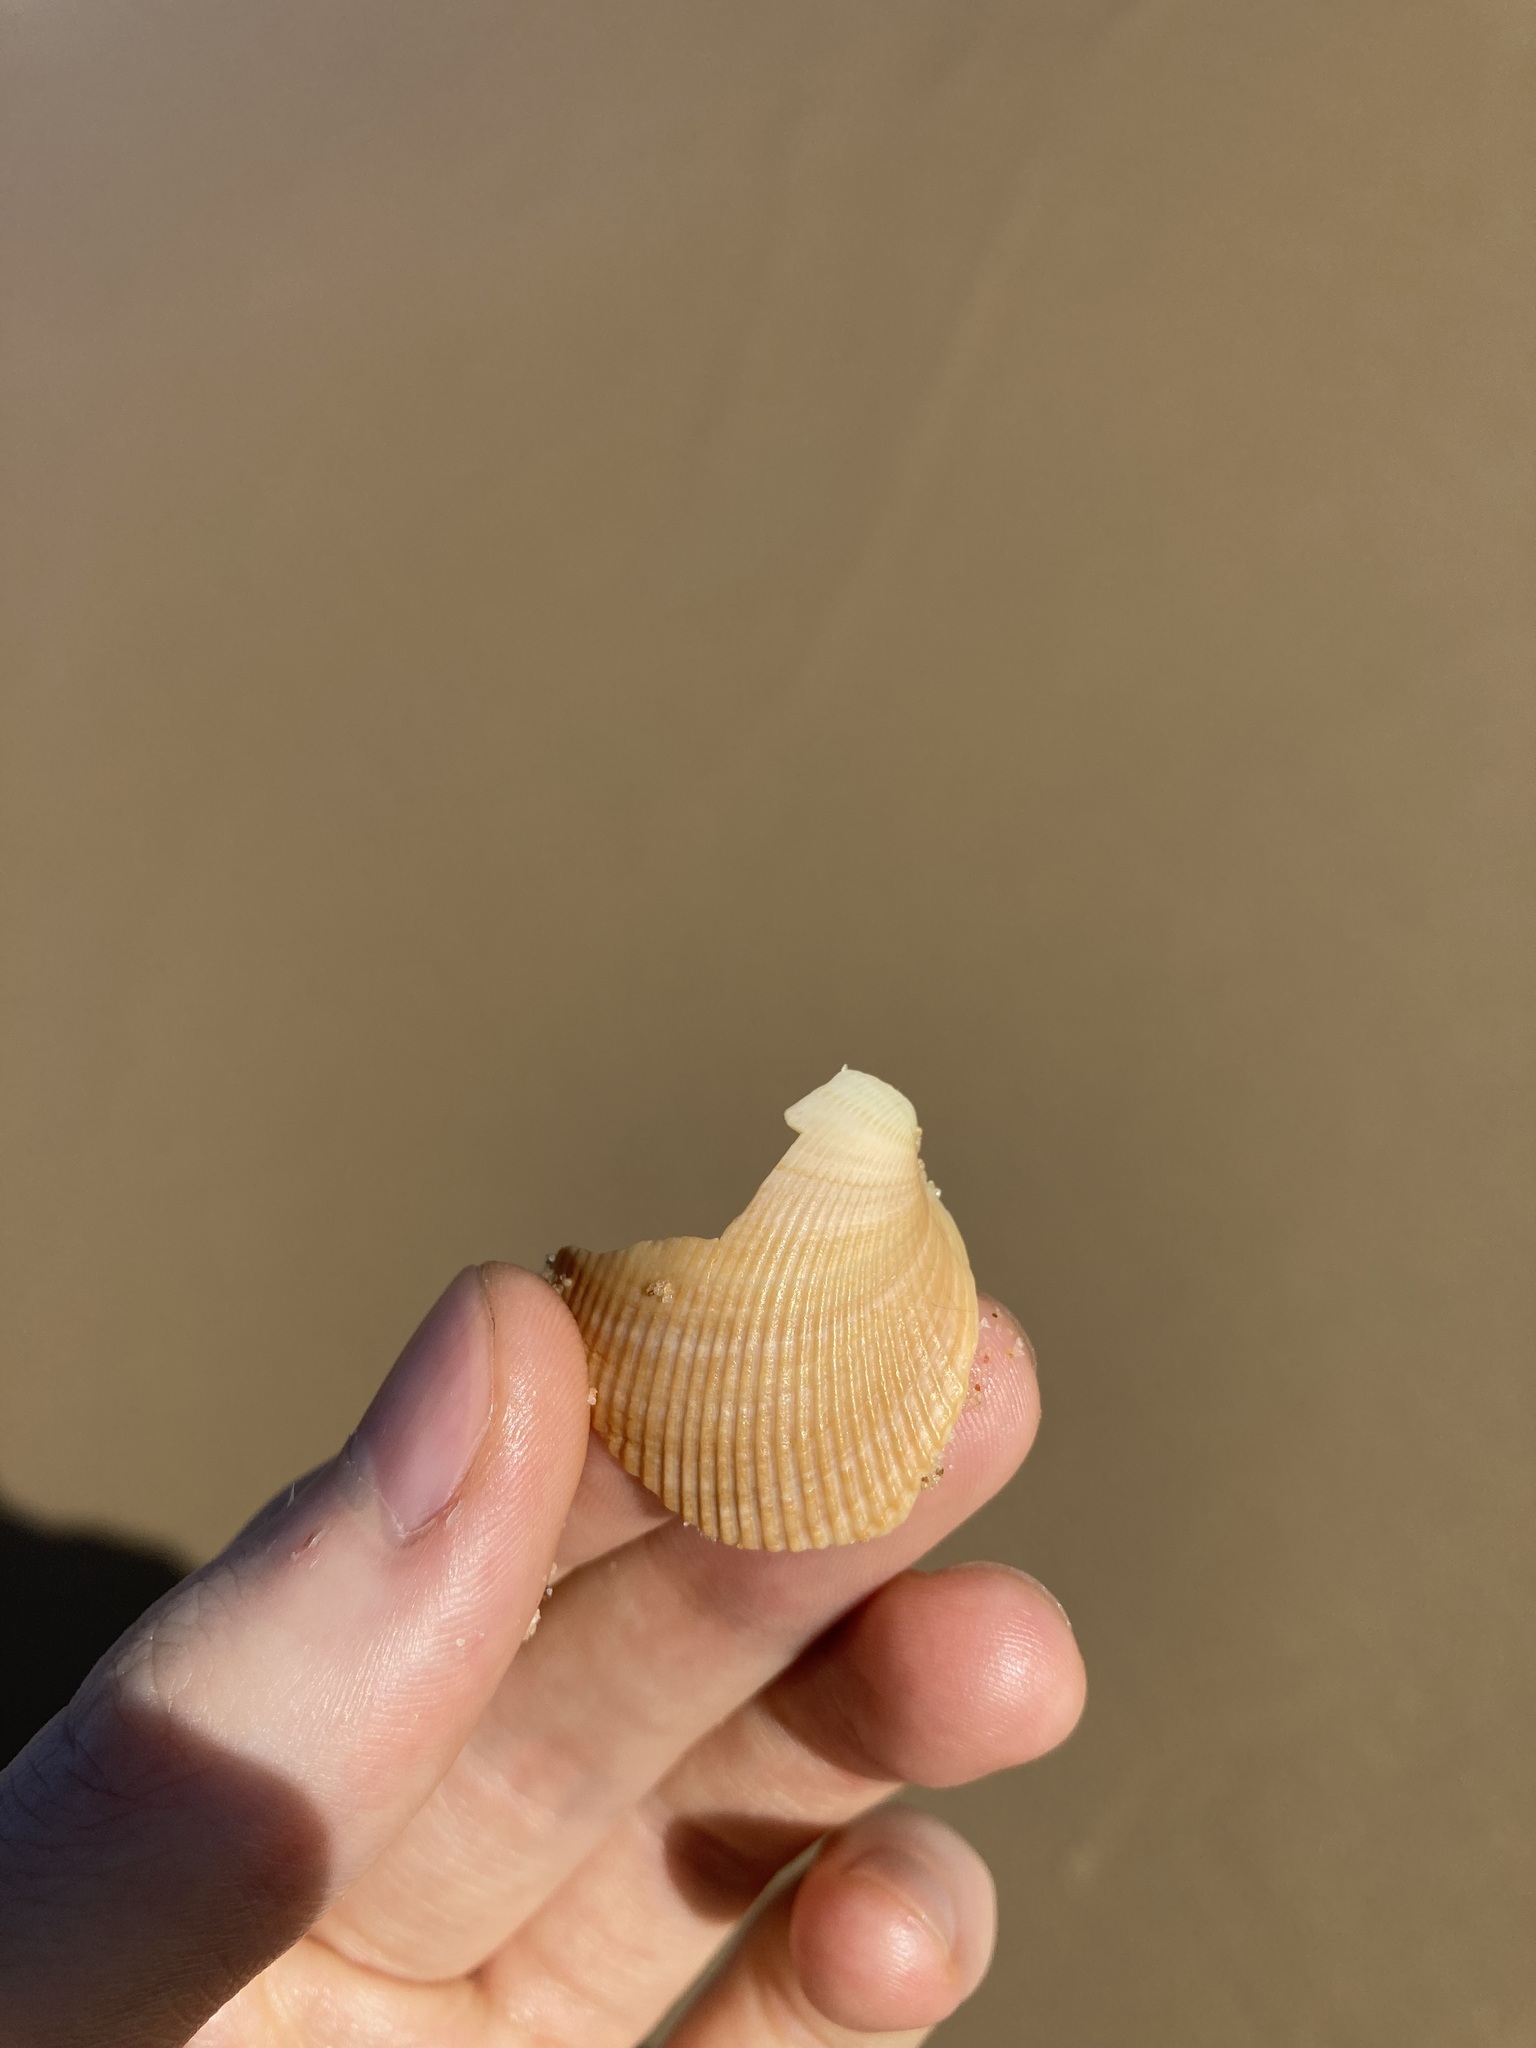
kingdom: Animalia
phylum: Mollusca
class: Bivalvia
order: Cardiida
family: Cardiidae
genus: Fulvia
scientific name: Fulvia tenuicostata
